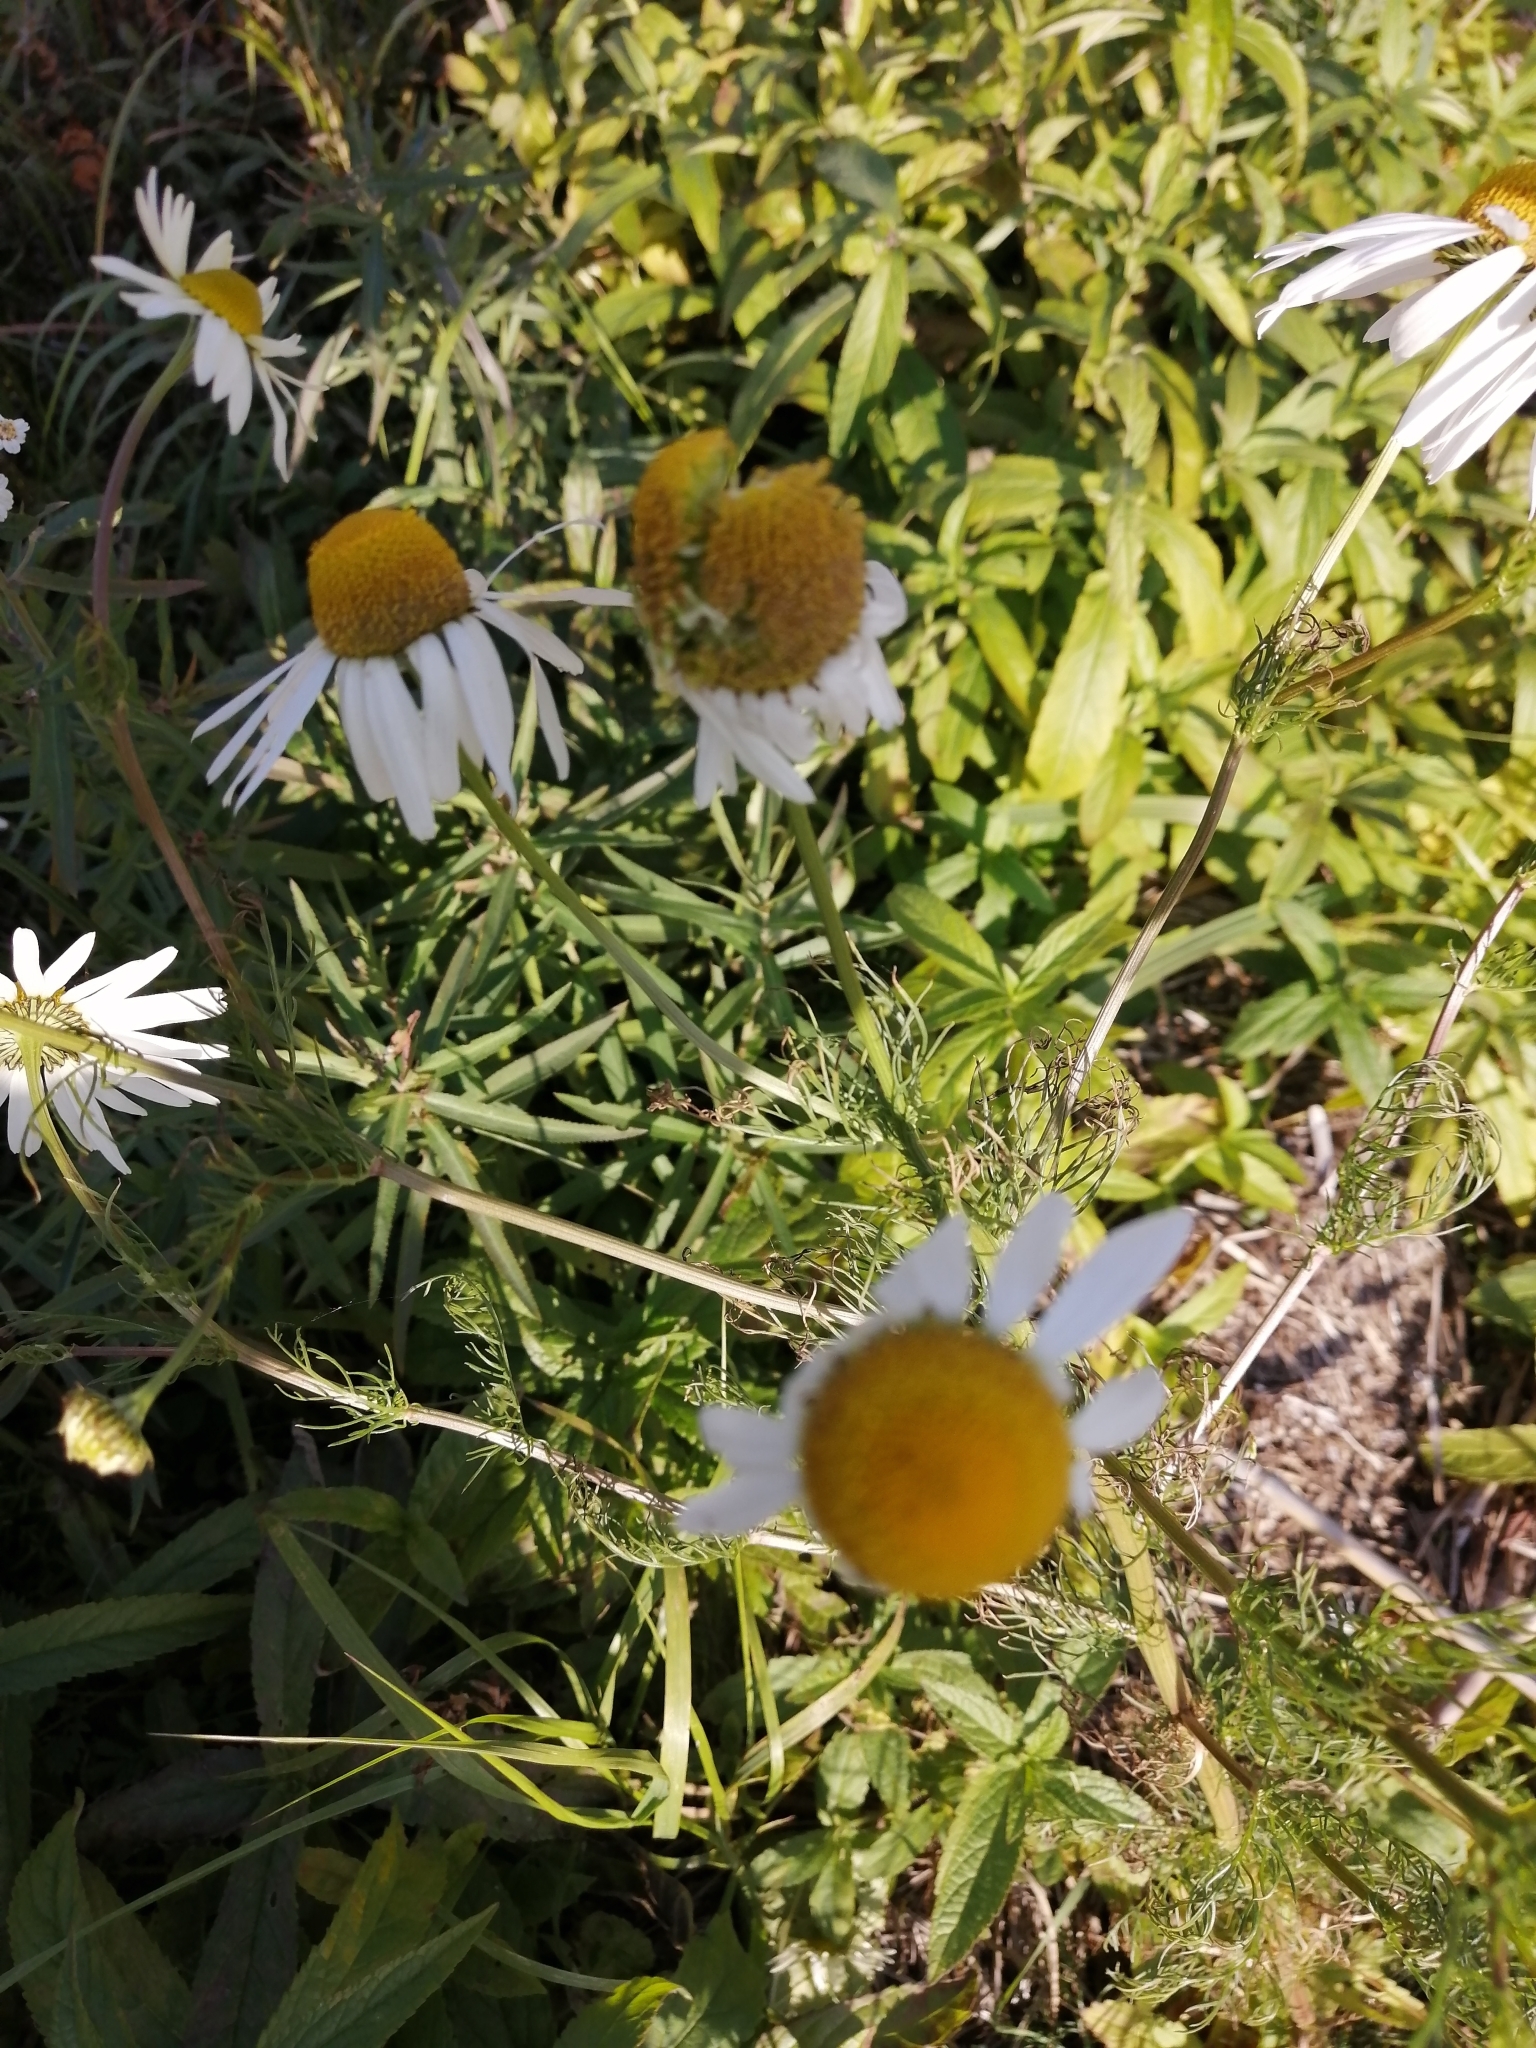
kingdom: Plantae
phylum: Tracheophyta
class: Magnoliopsida
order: Asterales
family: Asteraceae
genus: Tripleurospermum
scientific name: Tripleurospermum inodorum
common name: Scentless mayweed
